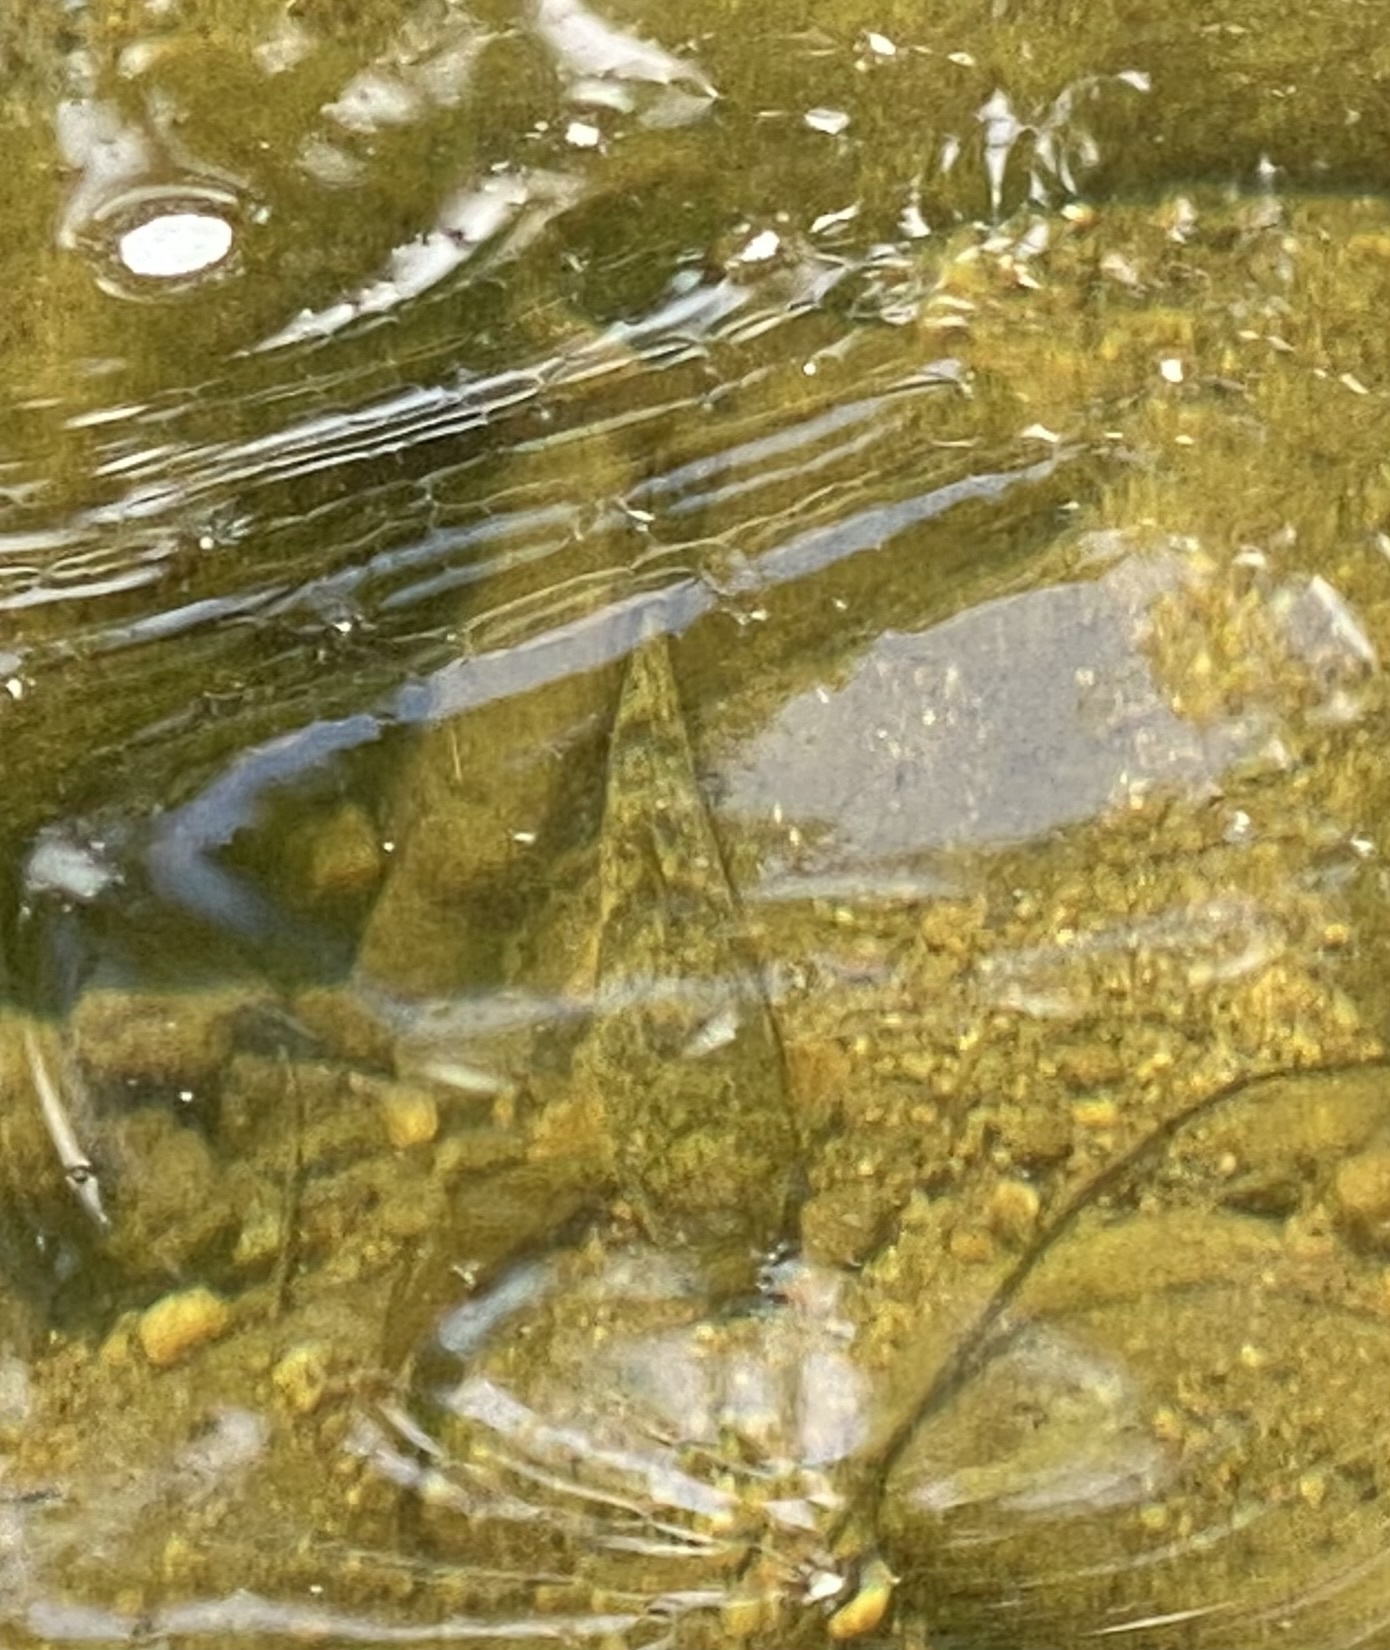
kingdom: Animalia
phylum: Chordata
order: Cypriniformes
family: Catostomidae
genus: Hypentelium
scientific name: Hypentelium nigricans
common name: Northern hog sucker
